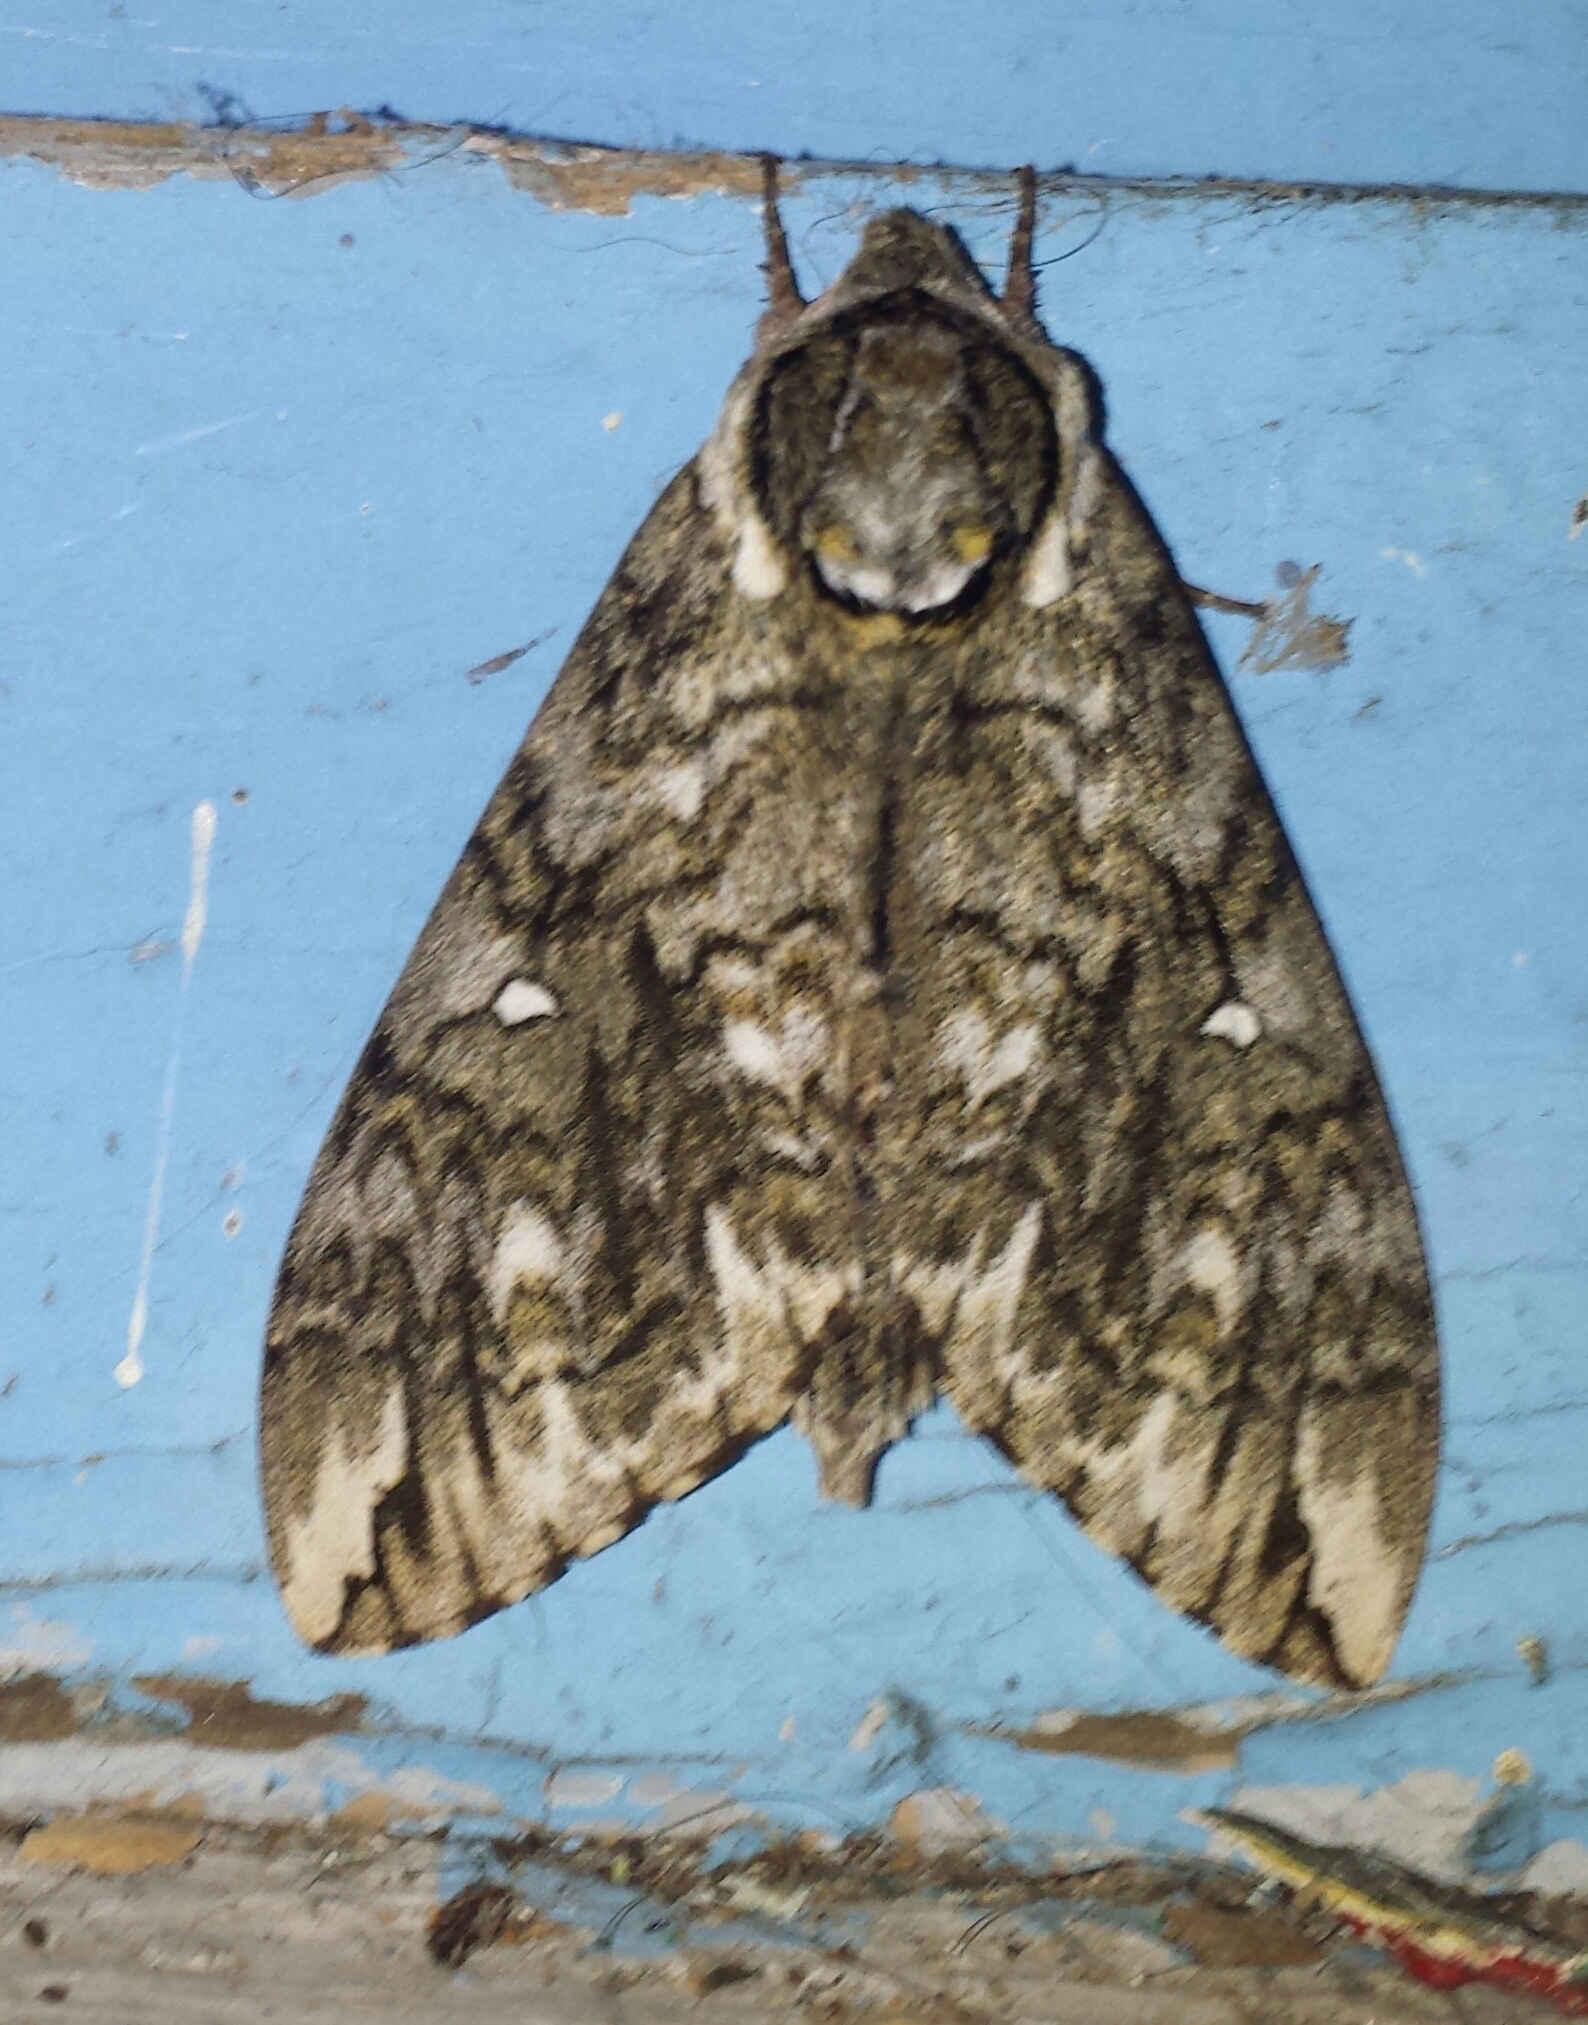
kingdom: Animalia
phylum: Arthropoda
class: Insecta
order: Lepidoptera
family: Sphingidae
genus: Ceratomia
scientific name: Ceratomia undulosa
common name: Waved sphinx
